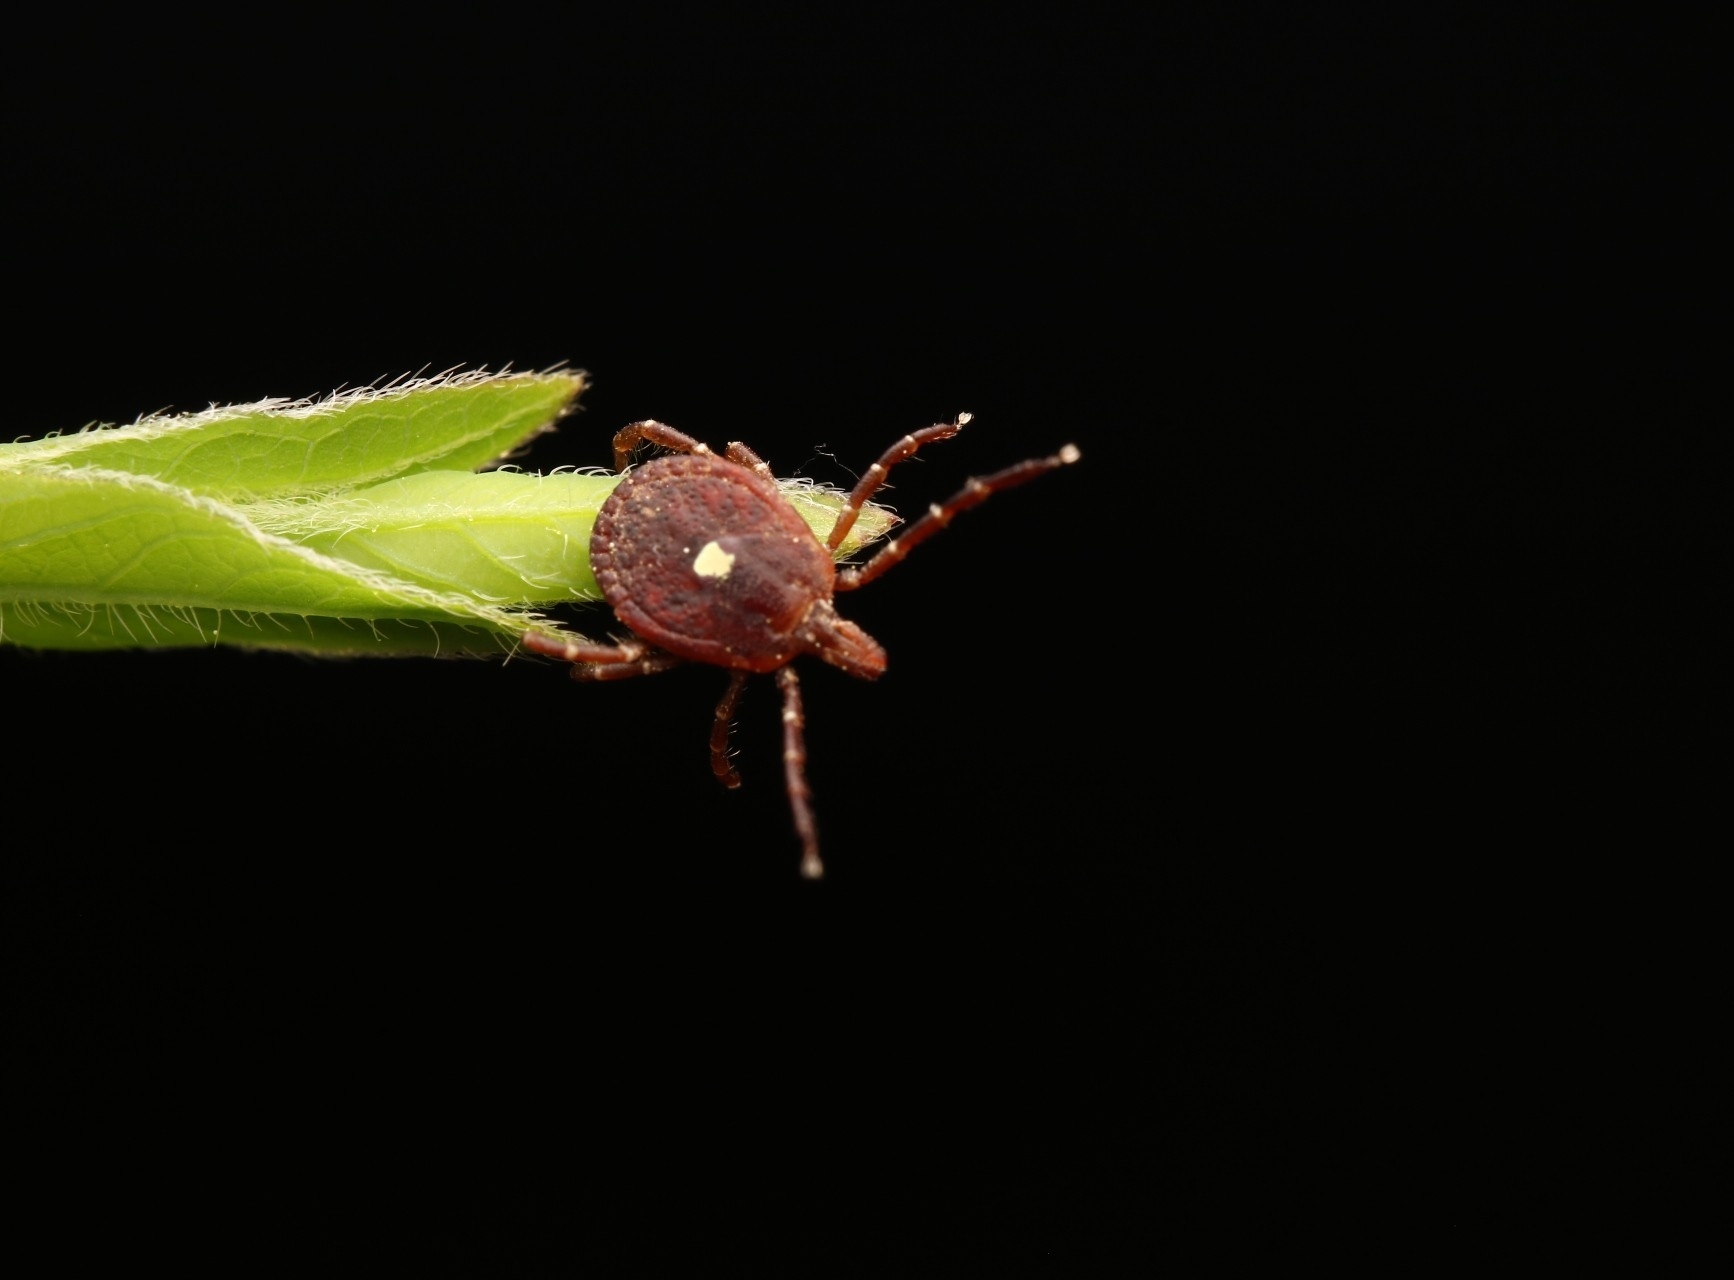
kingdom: Animalia
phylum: Arthropoda
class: Arachnida
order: Ixodida
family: Ixodidae
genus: Amblyomma
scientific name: Amblyomma americanum
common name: Lone star tick
